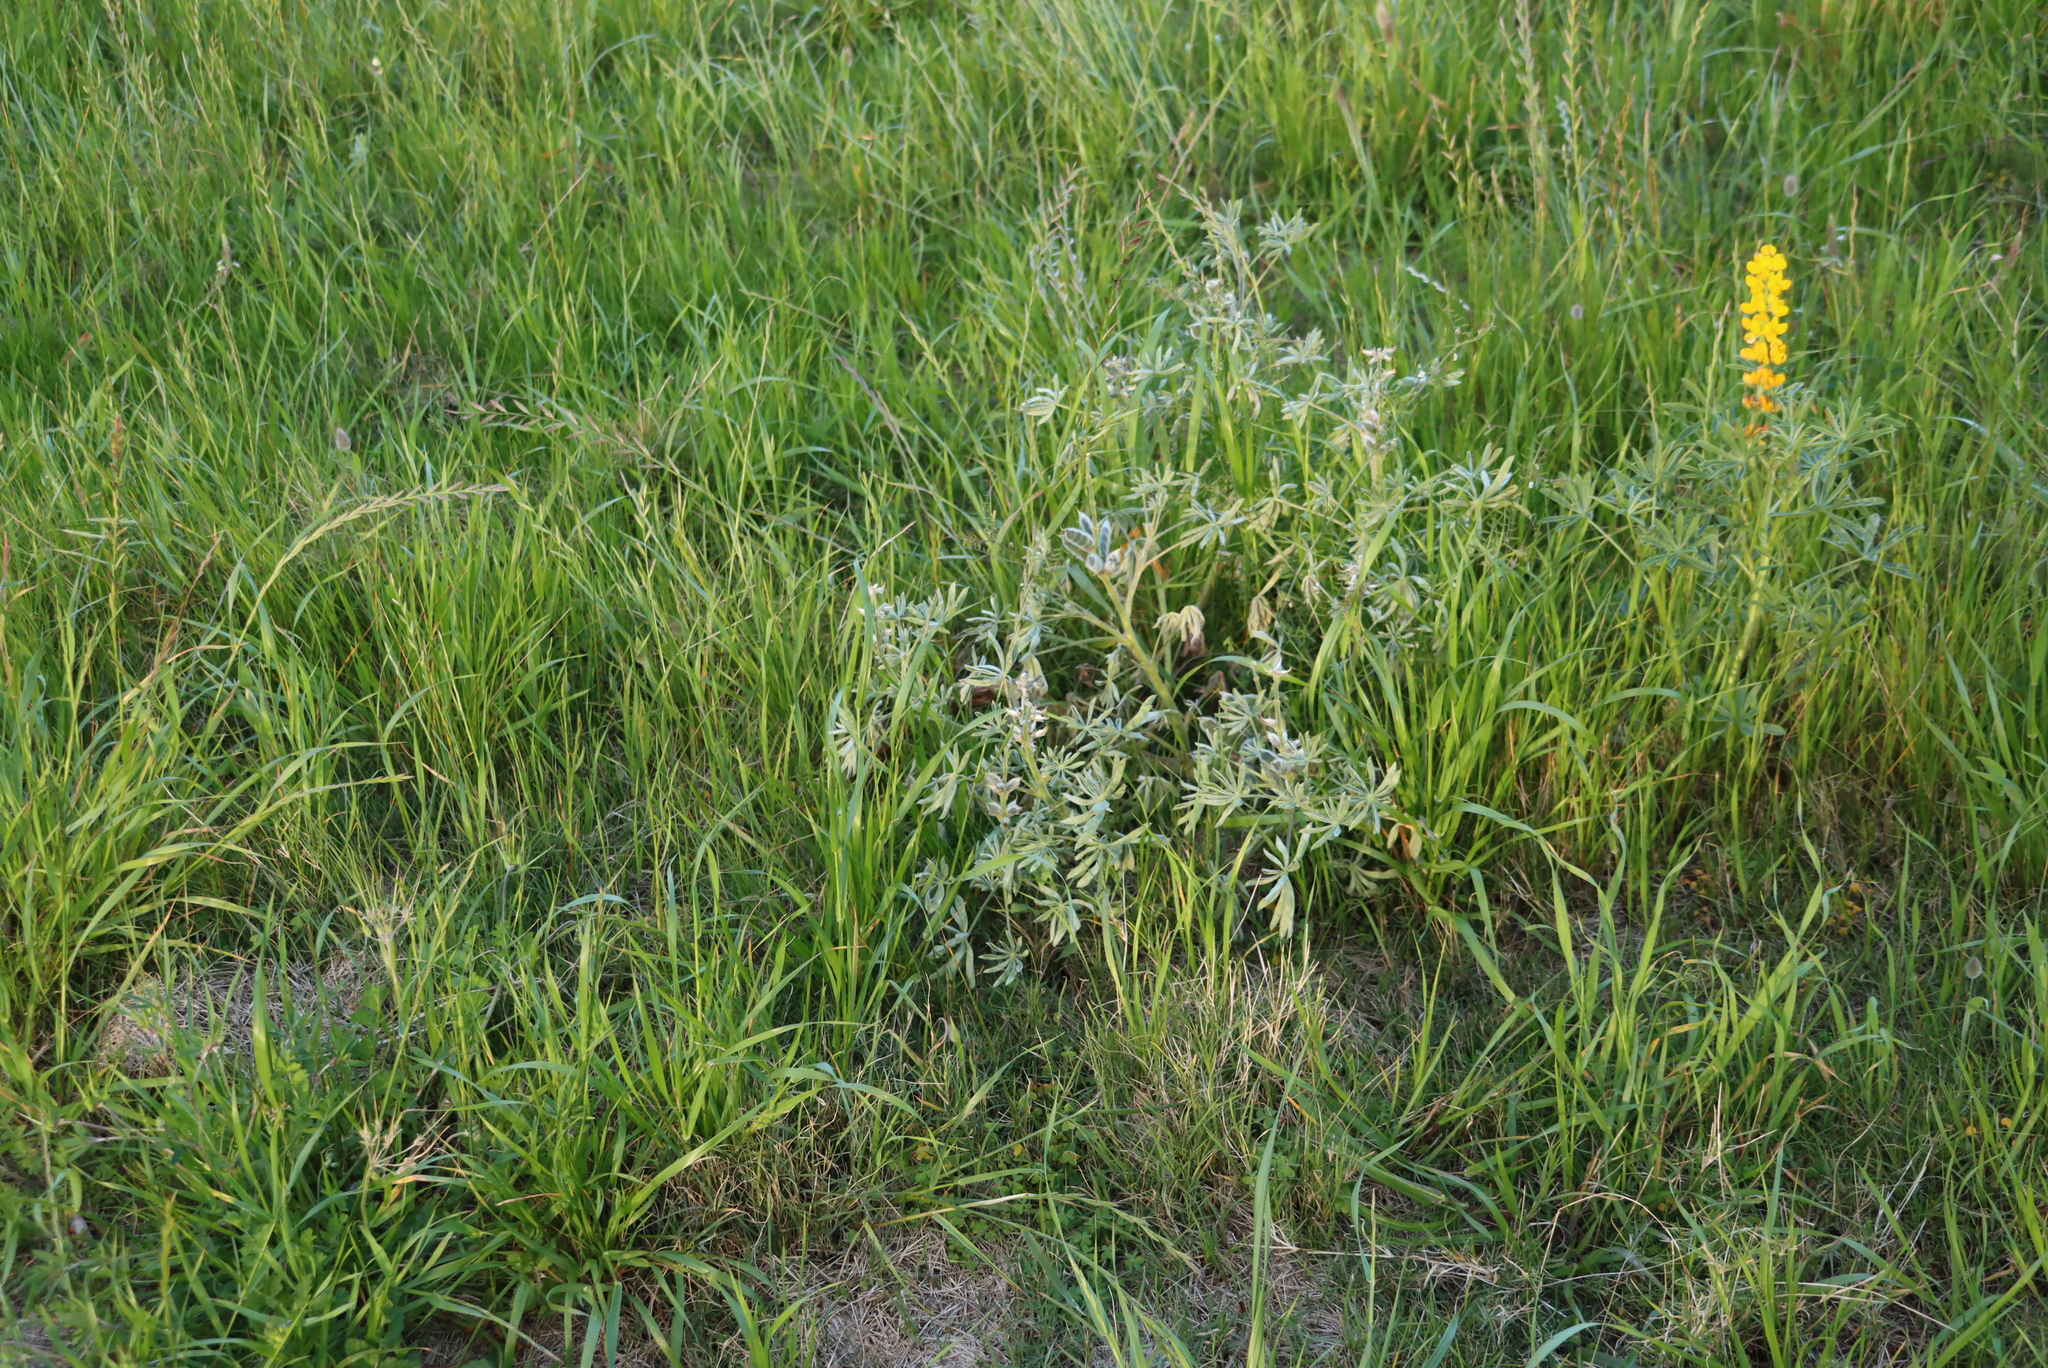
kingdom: Plantae
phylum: Tracheophyta
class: Magnoliopsida
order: Fabales
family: Fabaceae
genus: Lupinus
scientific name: Lupinus luteus
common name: European yellow lupine
